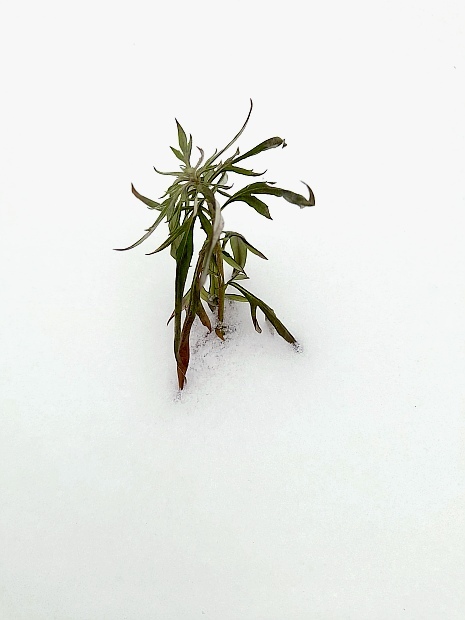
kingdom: Plantae
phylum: Tracheophyta
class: Magnoliopsida
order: Asterales
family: Asteraceae
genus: Artemisia
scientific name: Artemisia vulgaris
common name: Mugwort
